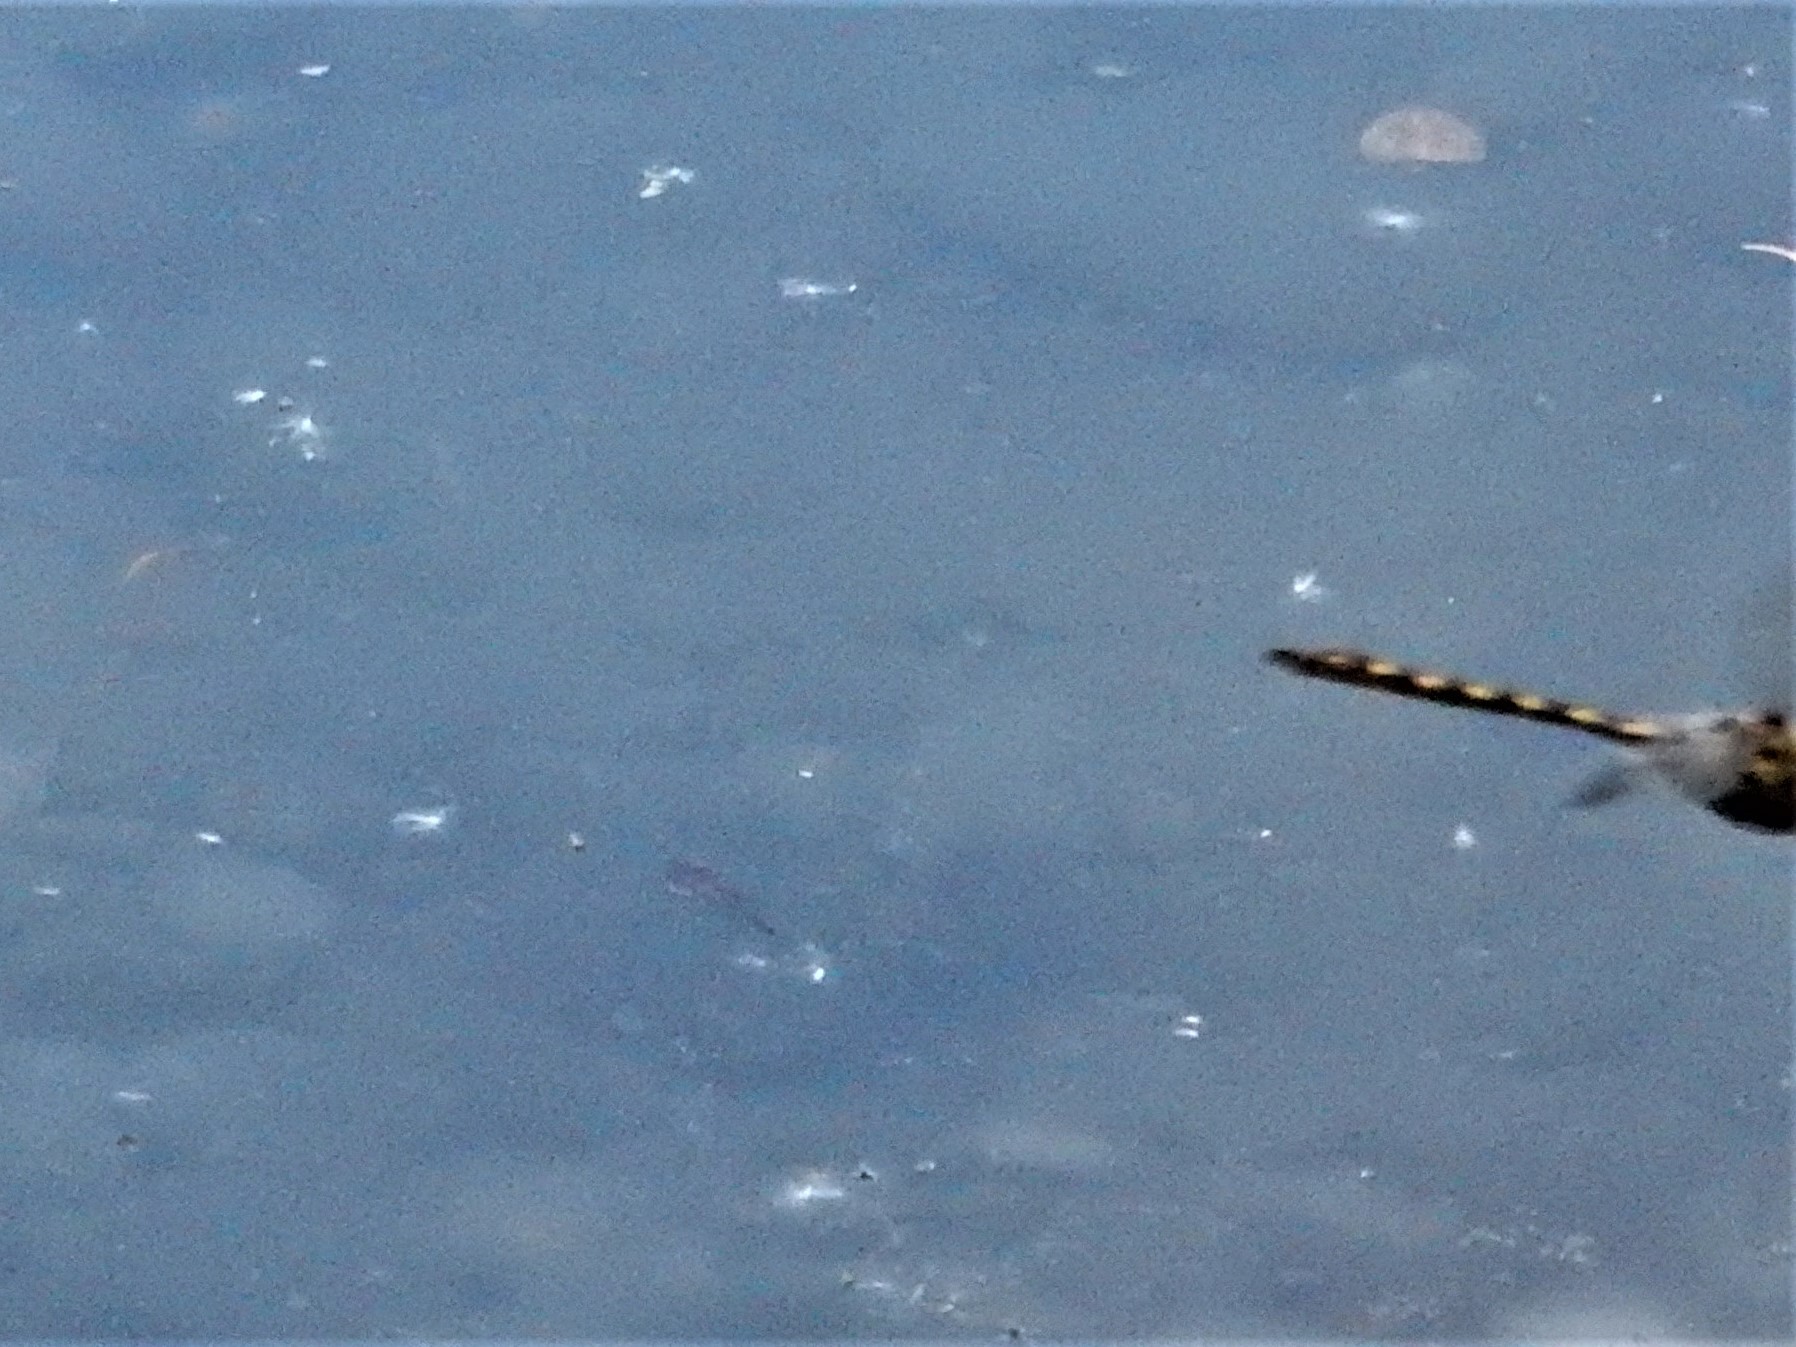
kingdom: Animalia
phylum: Arthropoda
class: Insecta
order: Odonata
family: Corduliidae
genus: Procordulia
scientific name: Procordulia grayi
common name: Yellow spotted dragonfly
